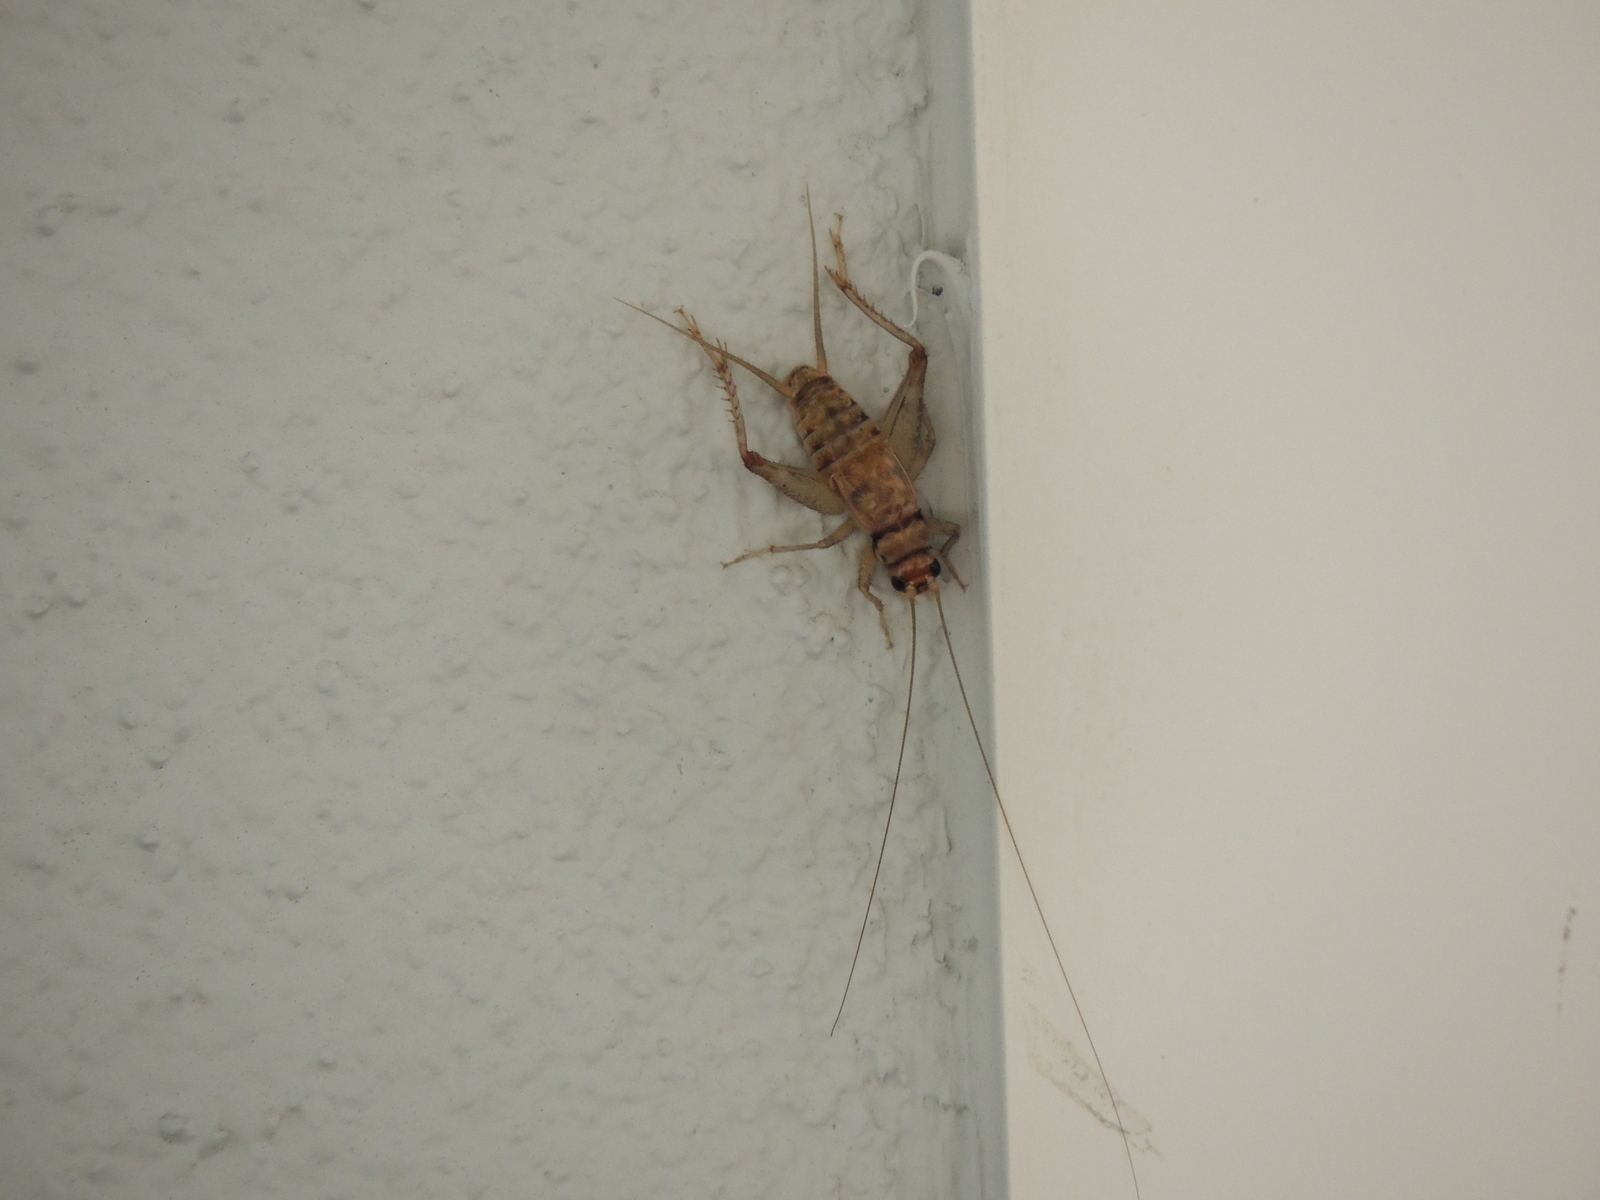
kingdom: Animalia
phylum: Arthropoda
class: Insecta
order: Orthoptera
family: Gryllidae
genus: Gryllodes
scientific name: Gryllodes sigillatus
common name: Tropical house cricket
